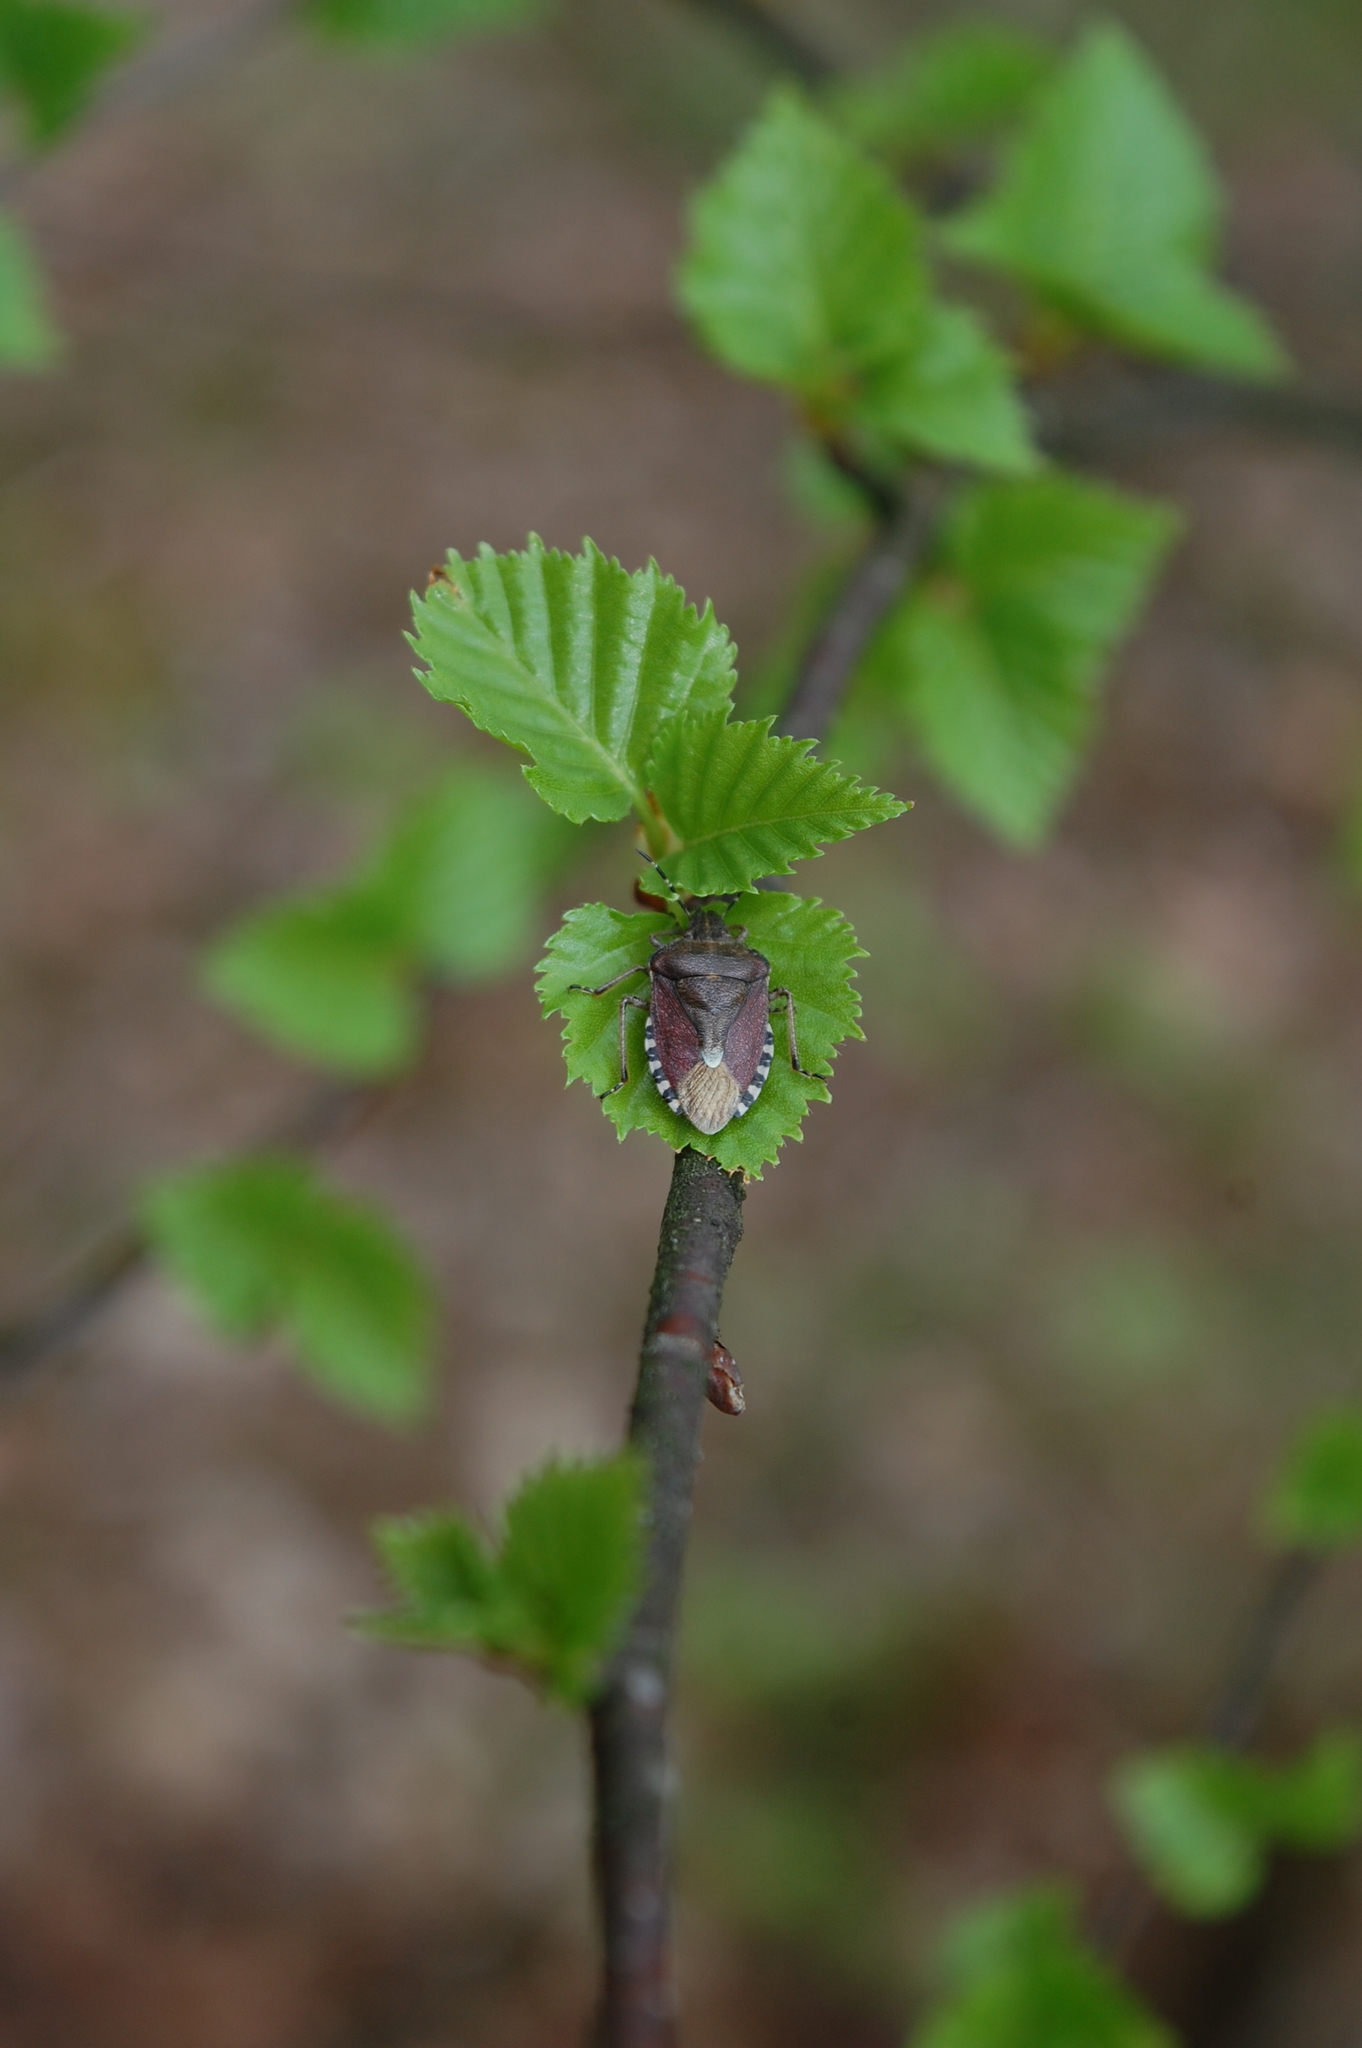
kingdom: Animalia
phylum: Arthropoda
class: Insecta
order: Hemiptera
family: Pentatomidae
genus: Dolycoris
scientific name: Dolycoris baccarum
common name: Sloe bug
